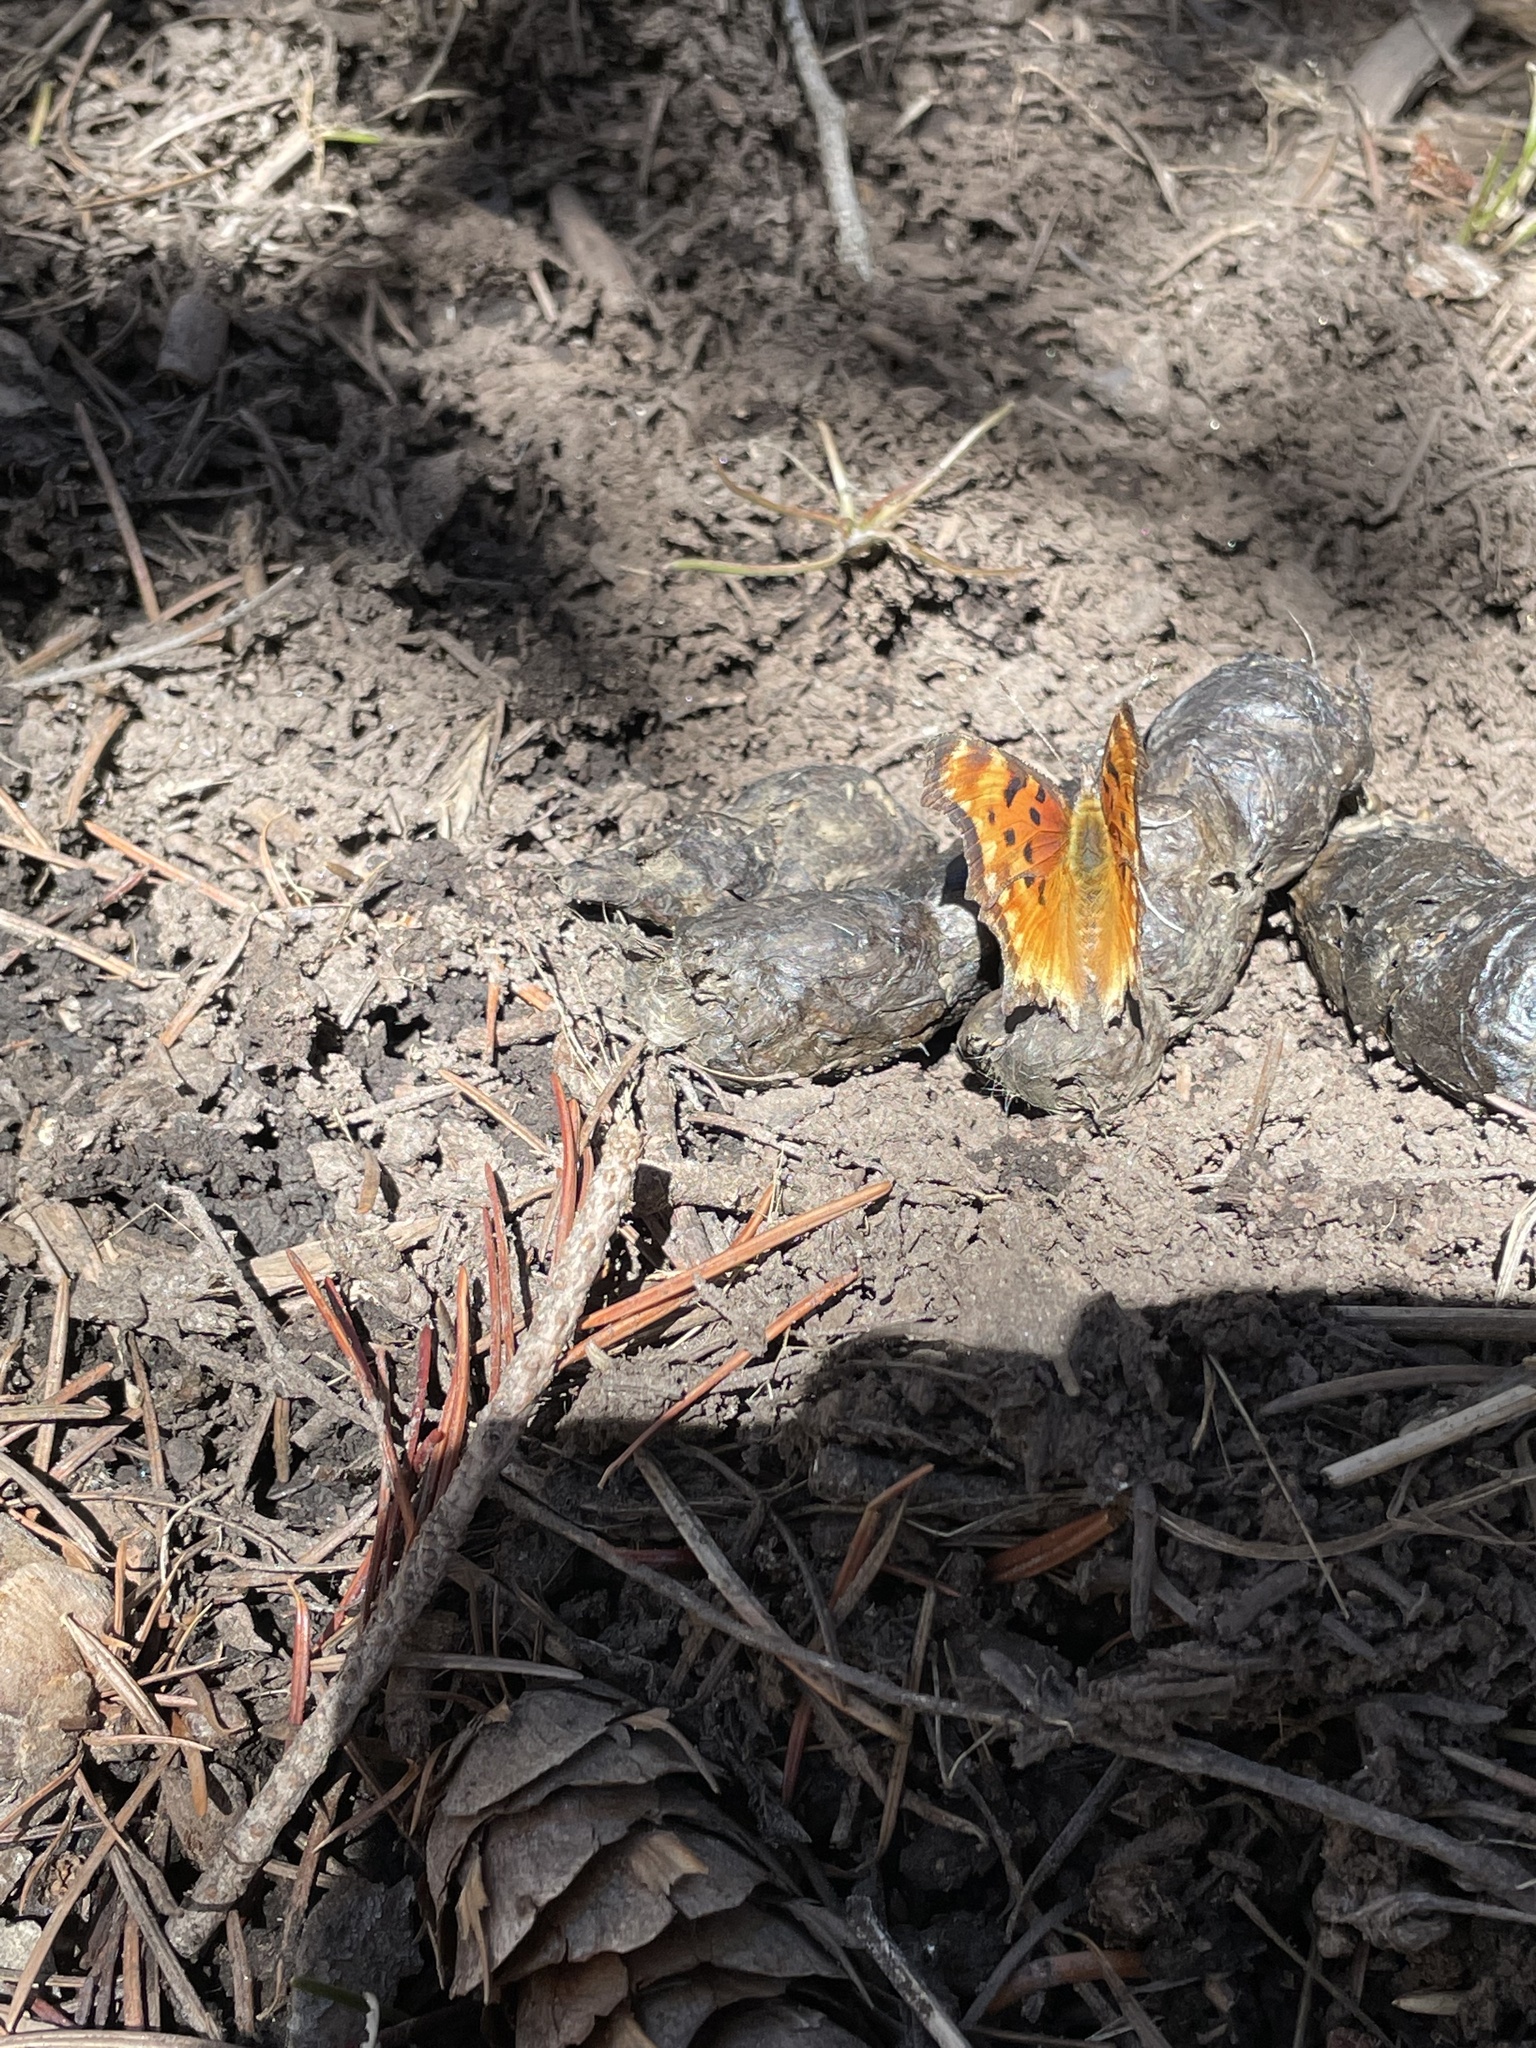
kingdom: Animalia
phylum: Arthropoda
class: Insecta
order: Lepidoptera
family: Nymphalidae
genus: Polygonia
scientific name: Polygonia gracilis
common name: Hoary comma
